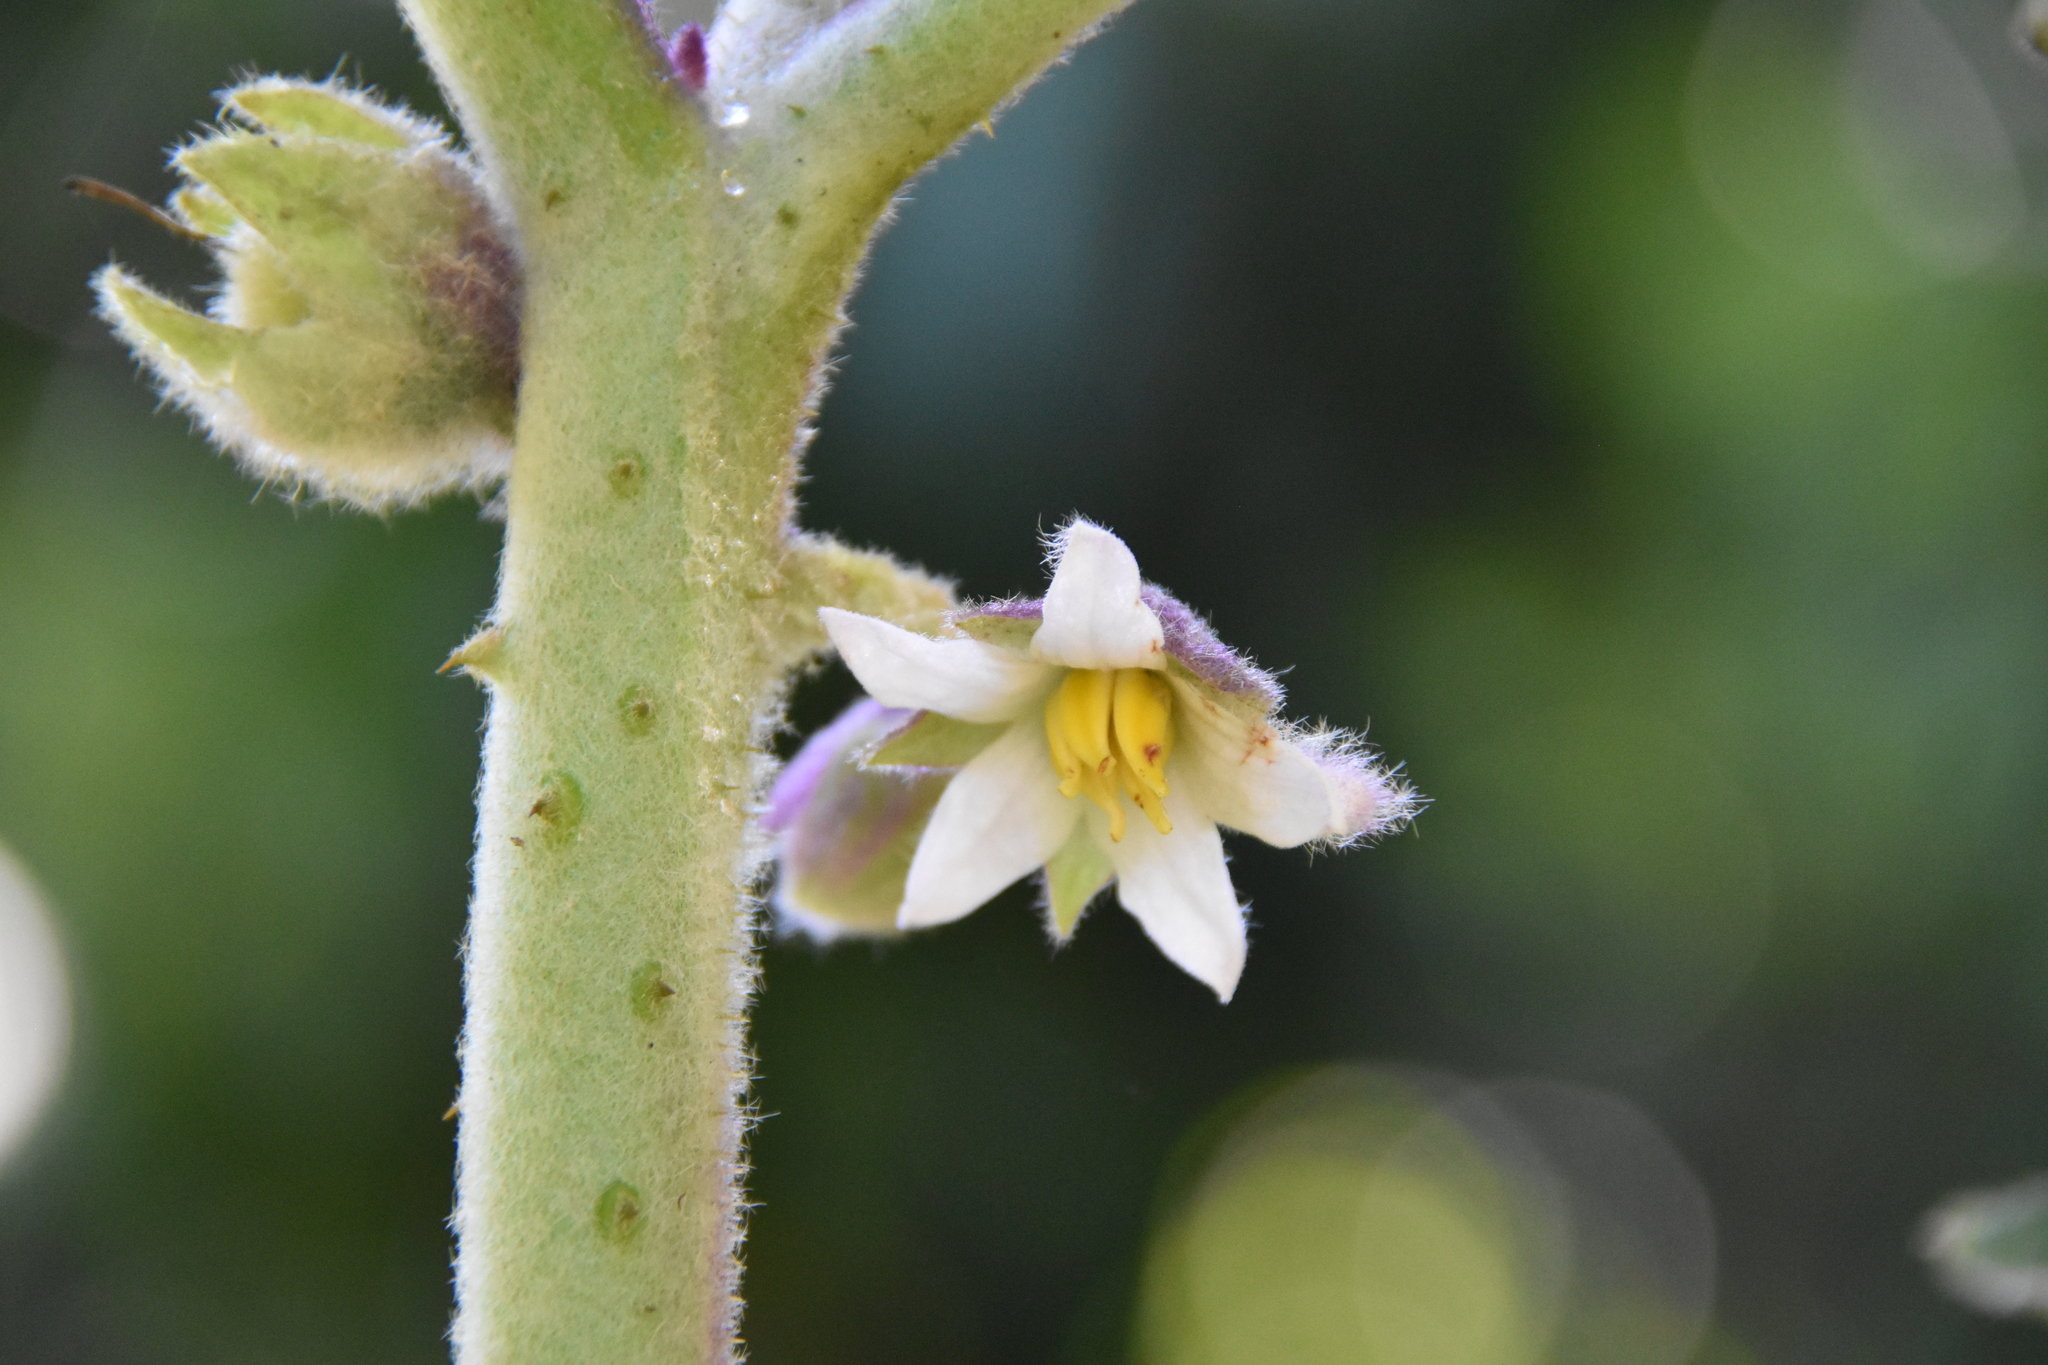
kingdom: Plantae
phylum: Tracheophyta
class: Magnoliopsida
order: Solanales
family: Solanaceae
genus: Solanum
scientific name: Solanum quitoense
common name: Quito-orange
